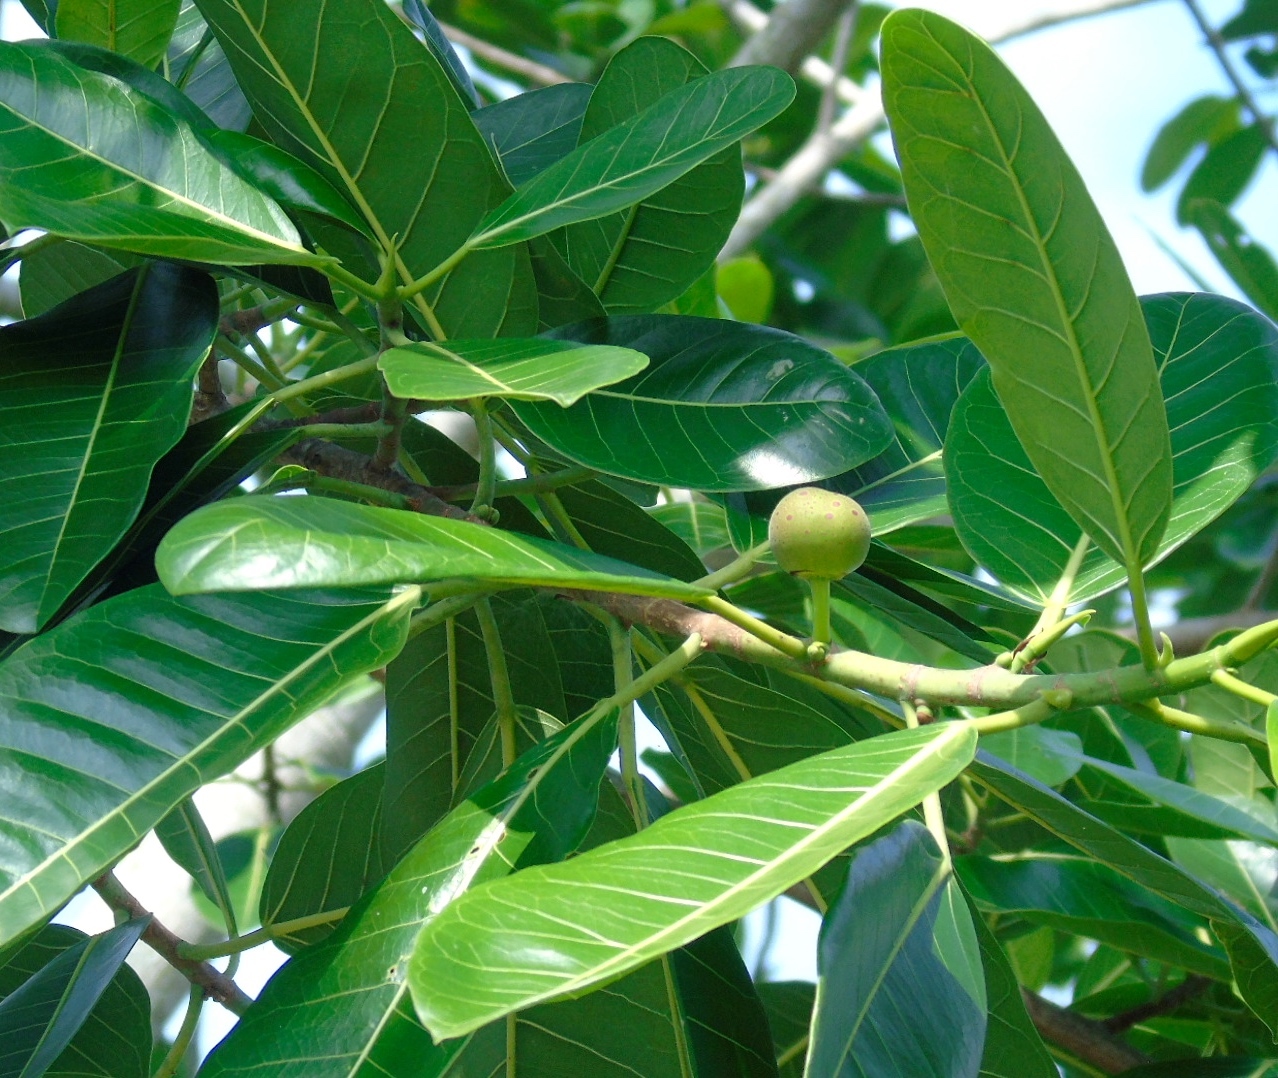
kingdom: Plantae
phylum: Tracheophyta
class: Magnoliopsida
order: Rosales
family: Moraceae
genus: Ficus
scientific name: Ficus insipida
